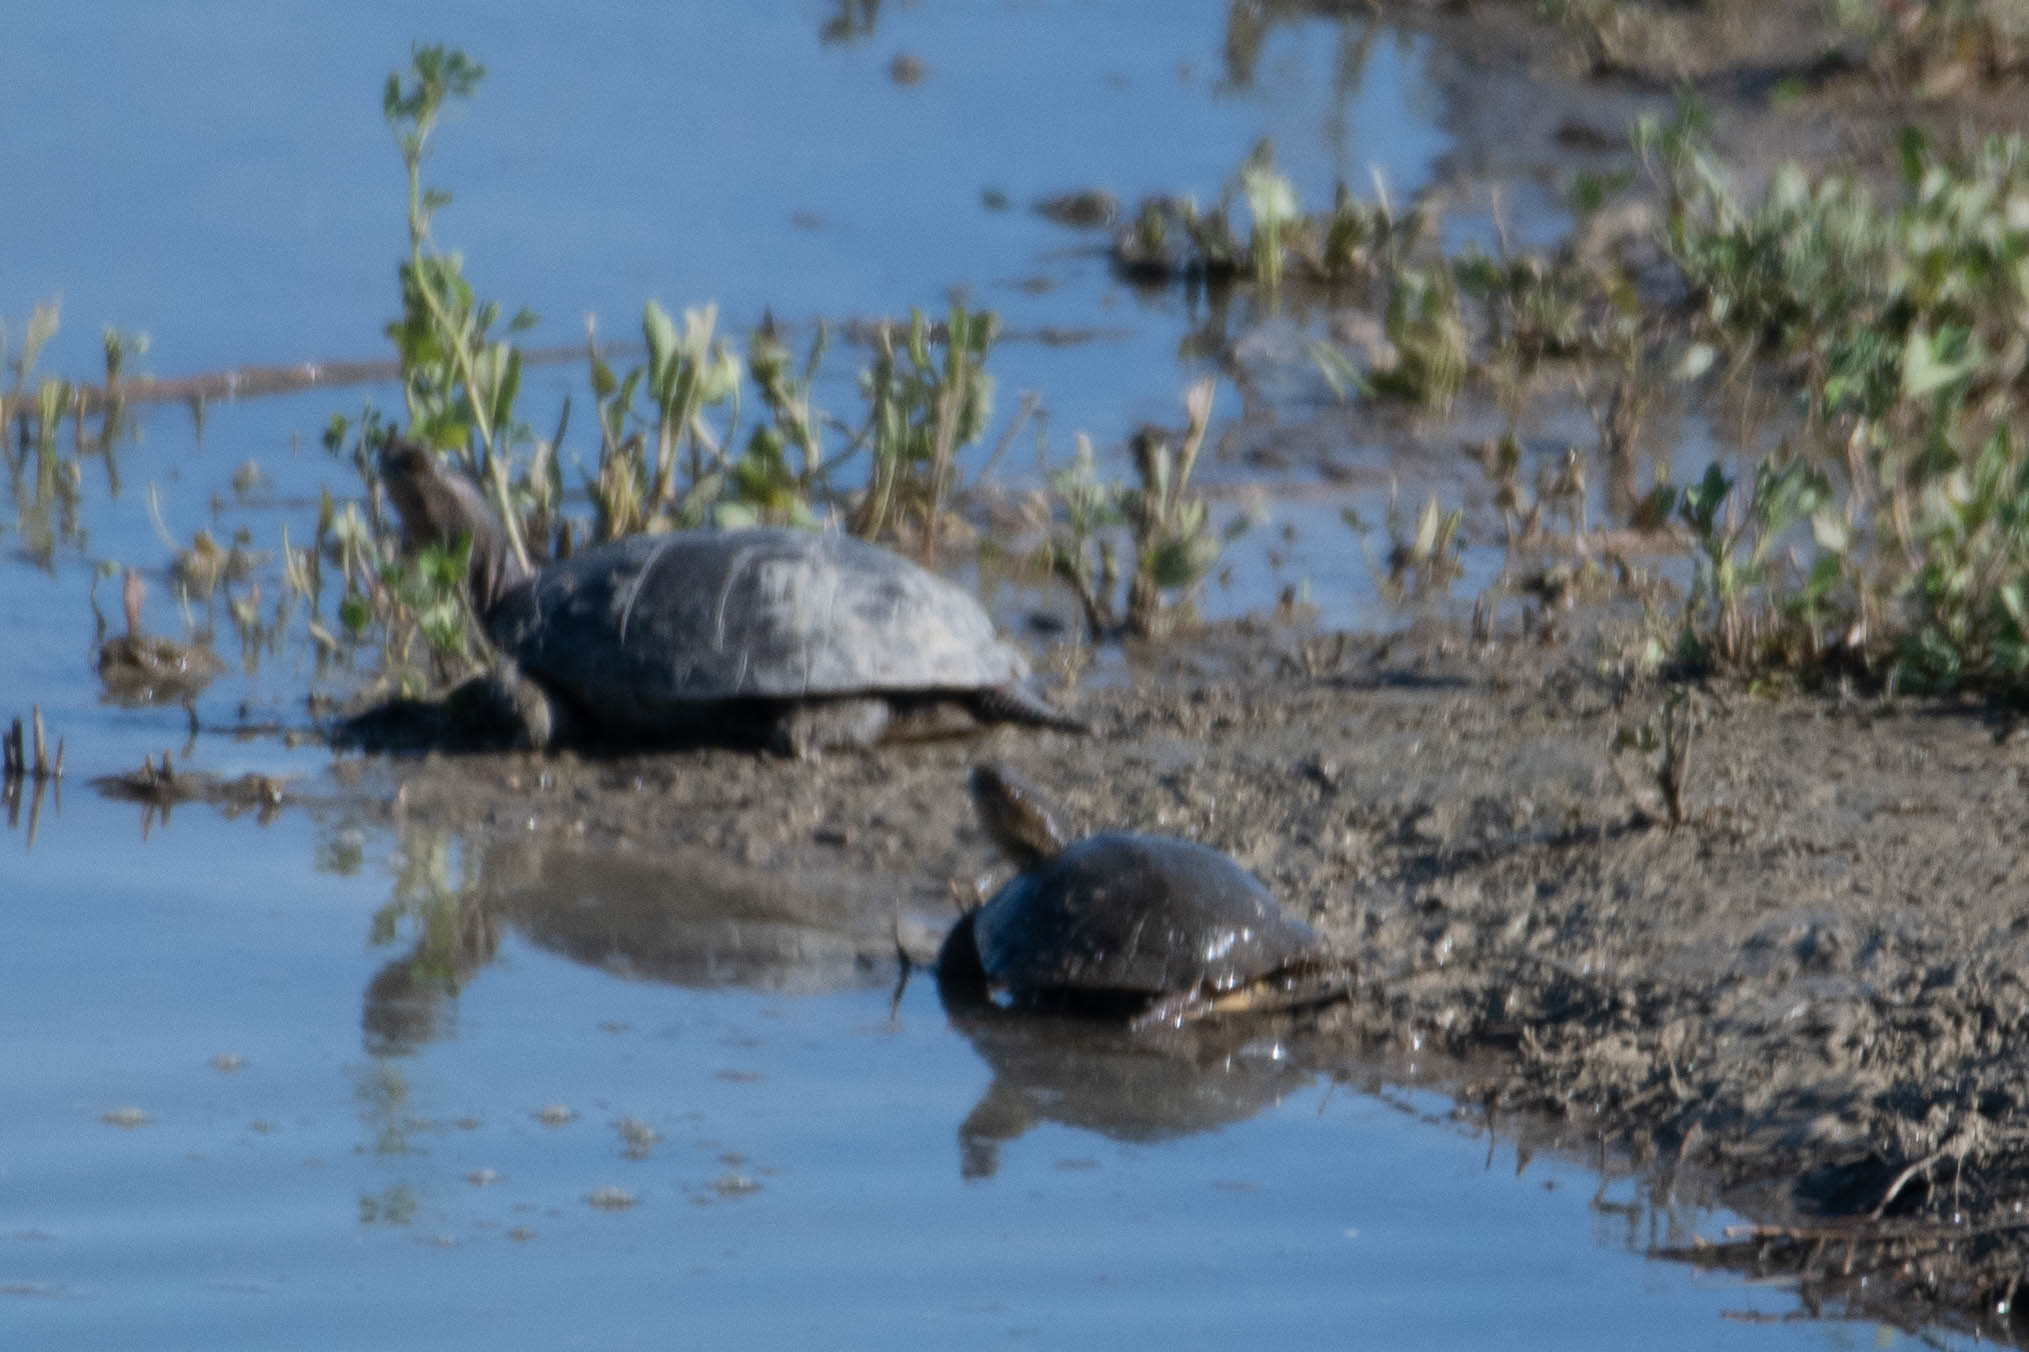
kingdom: Animalia
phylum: Chordata
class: Testudines
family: Emydidae
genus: Actinemys
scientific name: Actinemys marmorata
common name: Western pond turtle
